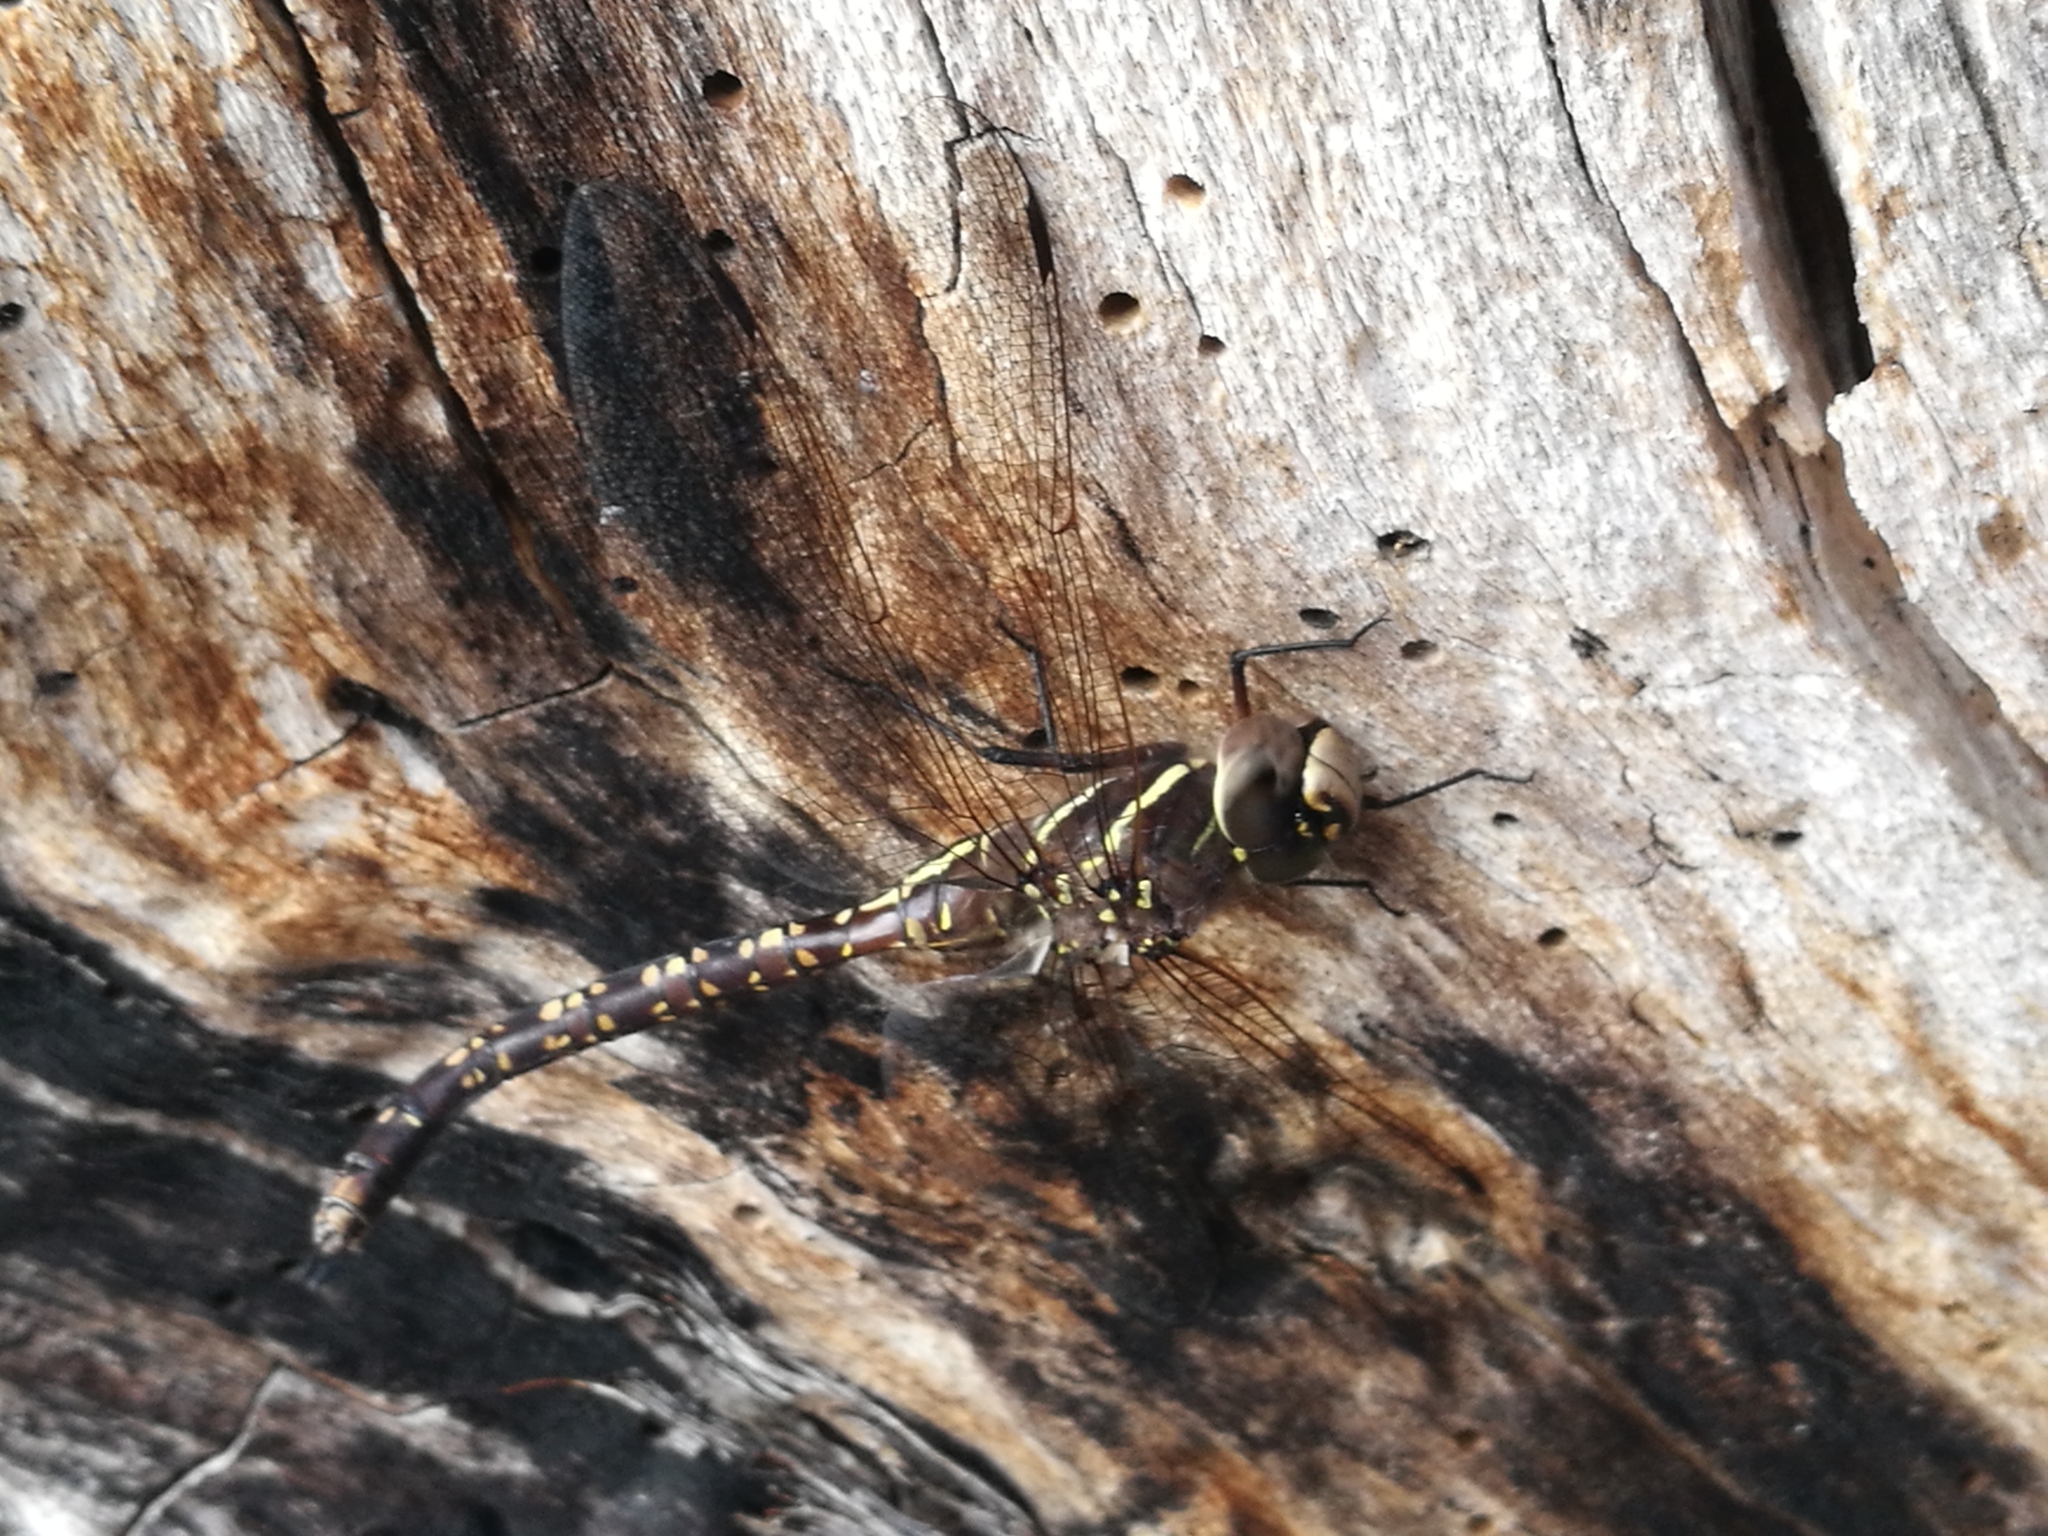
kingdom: Animalia
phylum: Arthropoda
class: Insecta
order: Odonata
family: Aeshnidae
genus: Aeshna
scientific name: Aeshna brevistyla
